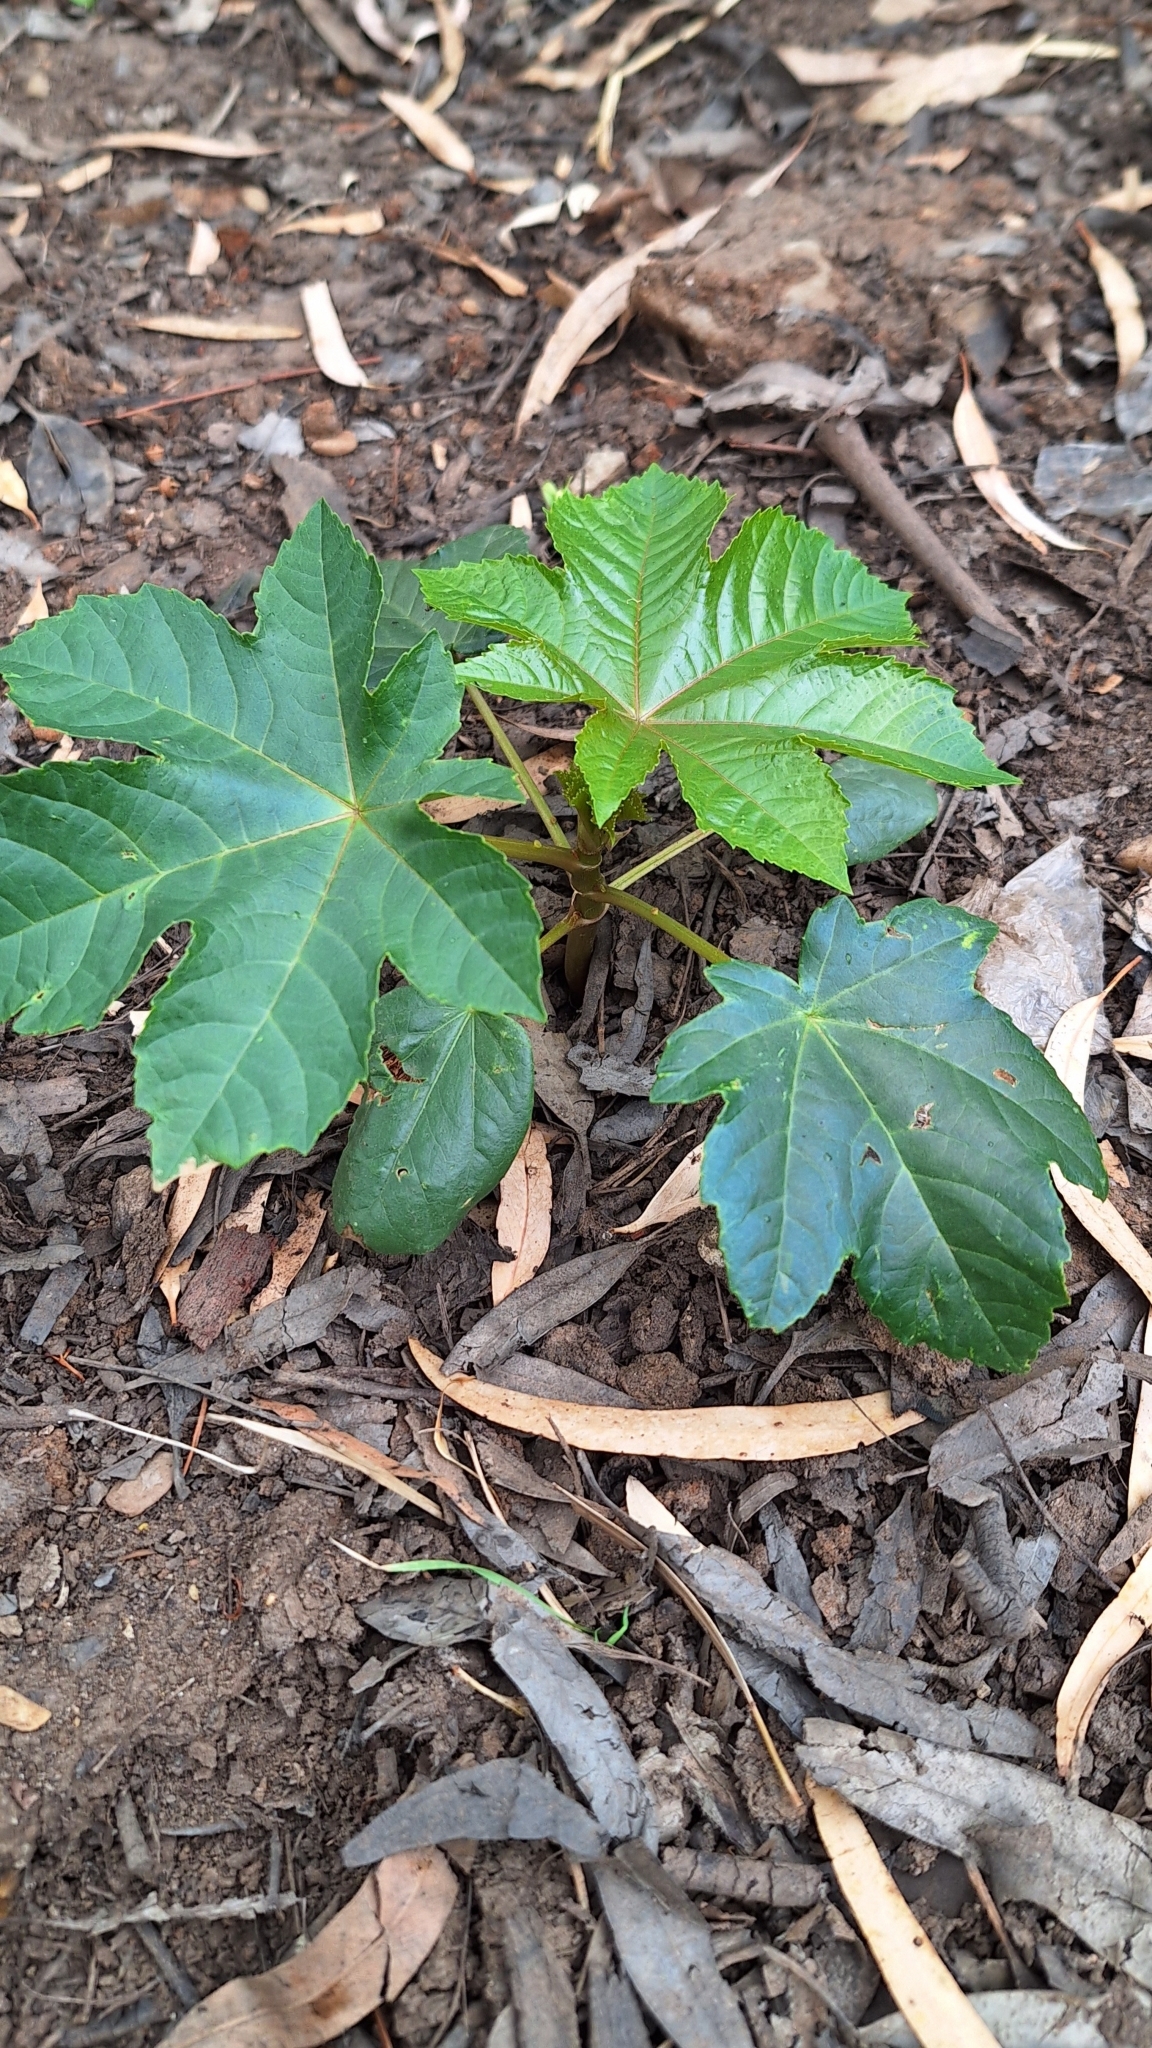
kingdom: Plantae
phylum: Tracheophyta
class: Magnoliopsida
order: Malpighiales
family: Euphorbiaceae
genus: Ricinus
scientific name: Ricinus communis
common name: Castor-oil-plant
